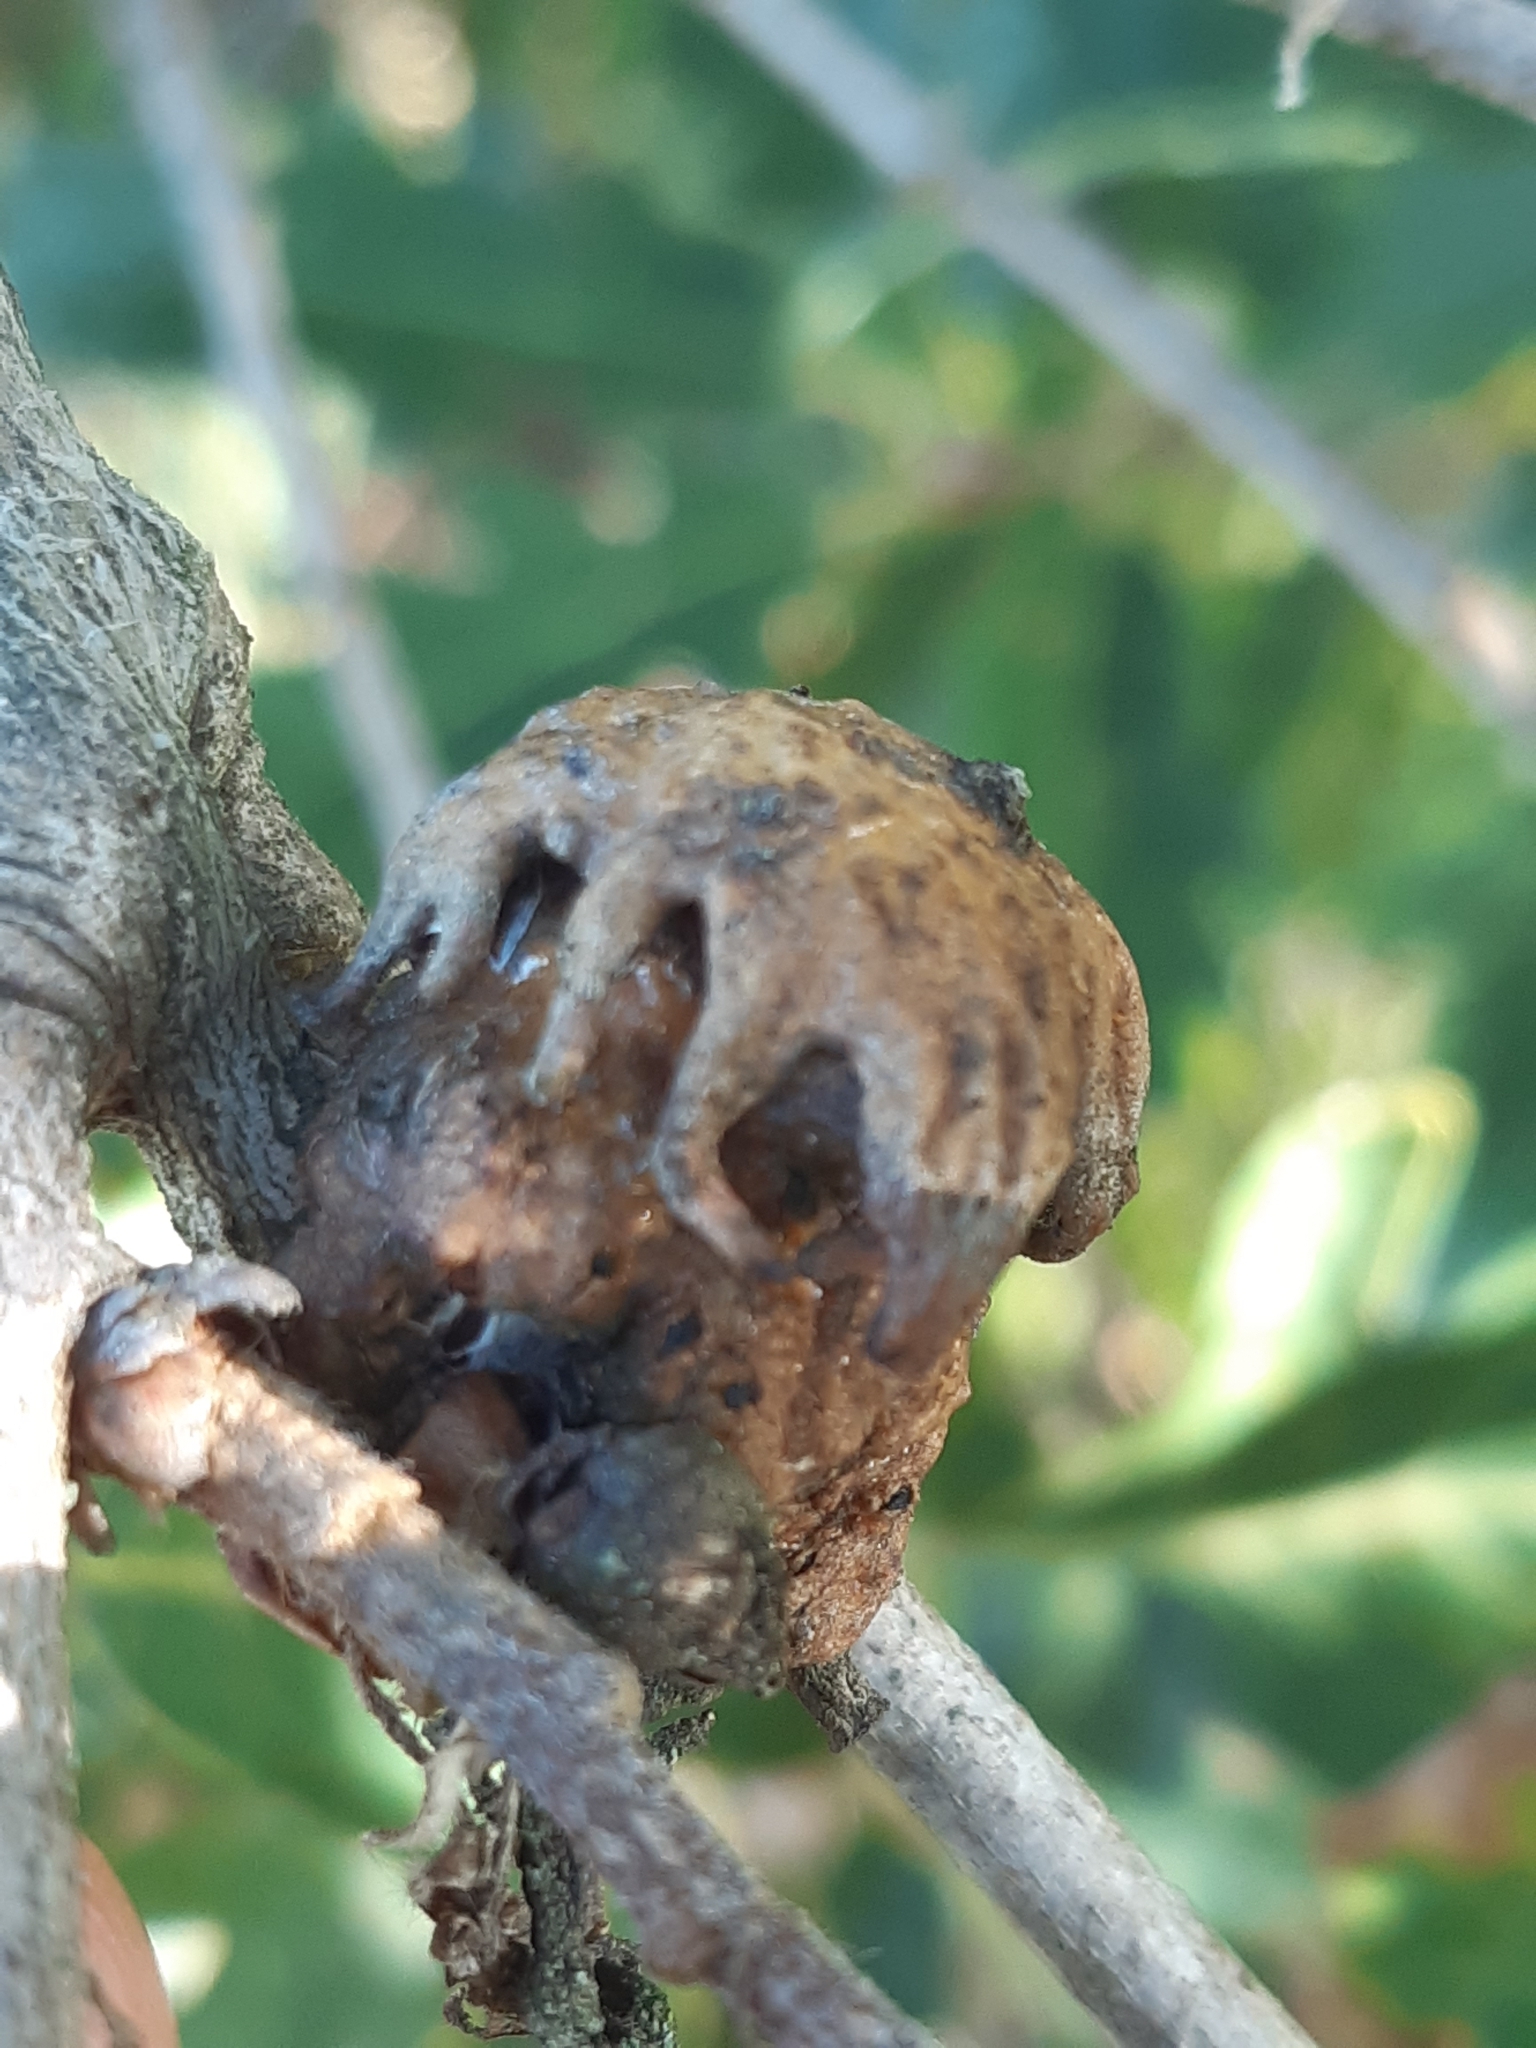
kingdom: Animalia
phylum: Arthropoda
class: Insecta
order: Hymenoptera
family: Cynipidae
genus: Andricus
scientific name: Andricus dentimitratus
